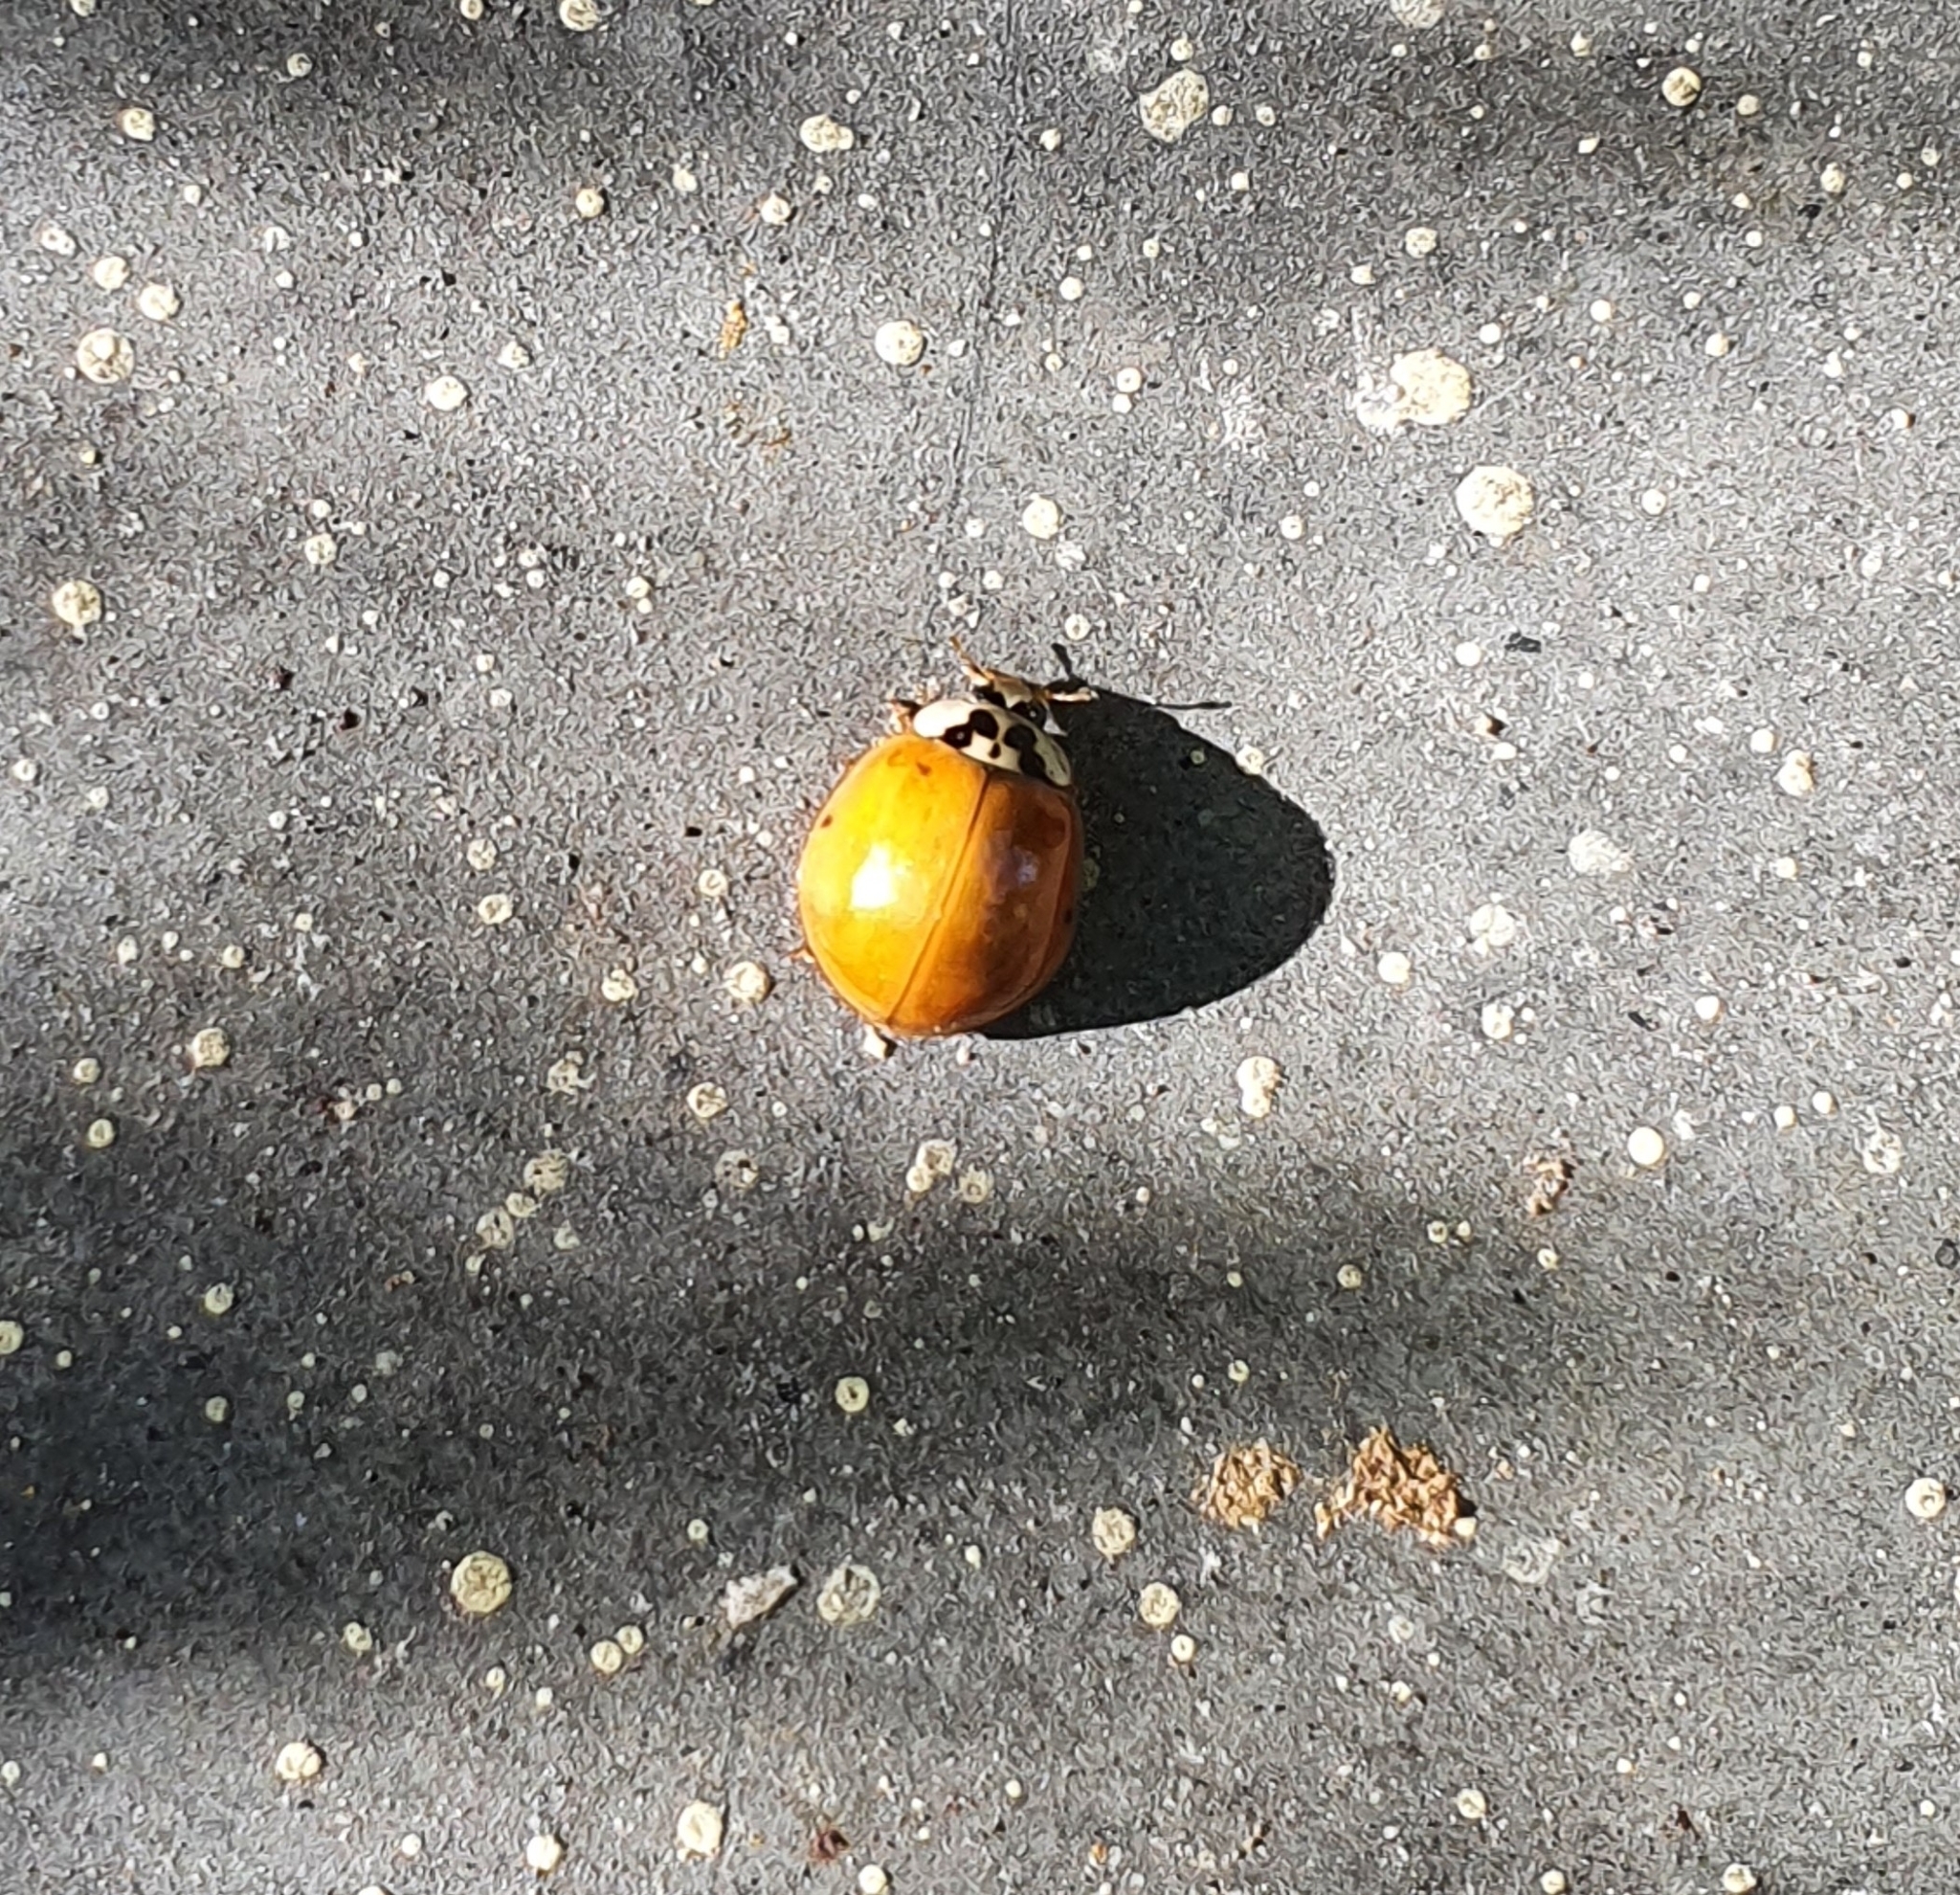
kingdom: Animalia
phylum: Arthropoda
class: Insecta
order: Coleoptera
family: Coccinellidae
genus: Harmonia
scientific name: Harmonia axyridis
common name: Harlequin ladybird
